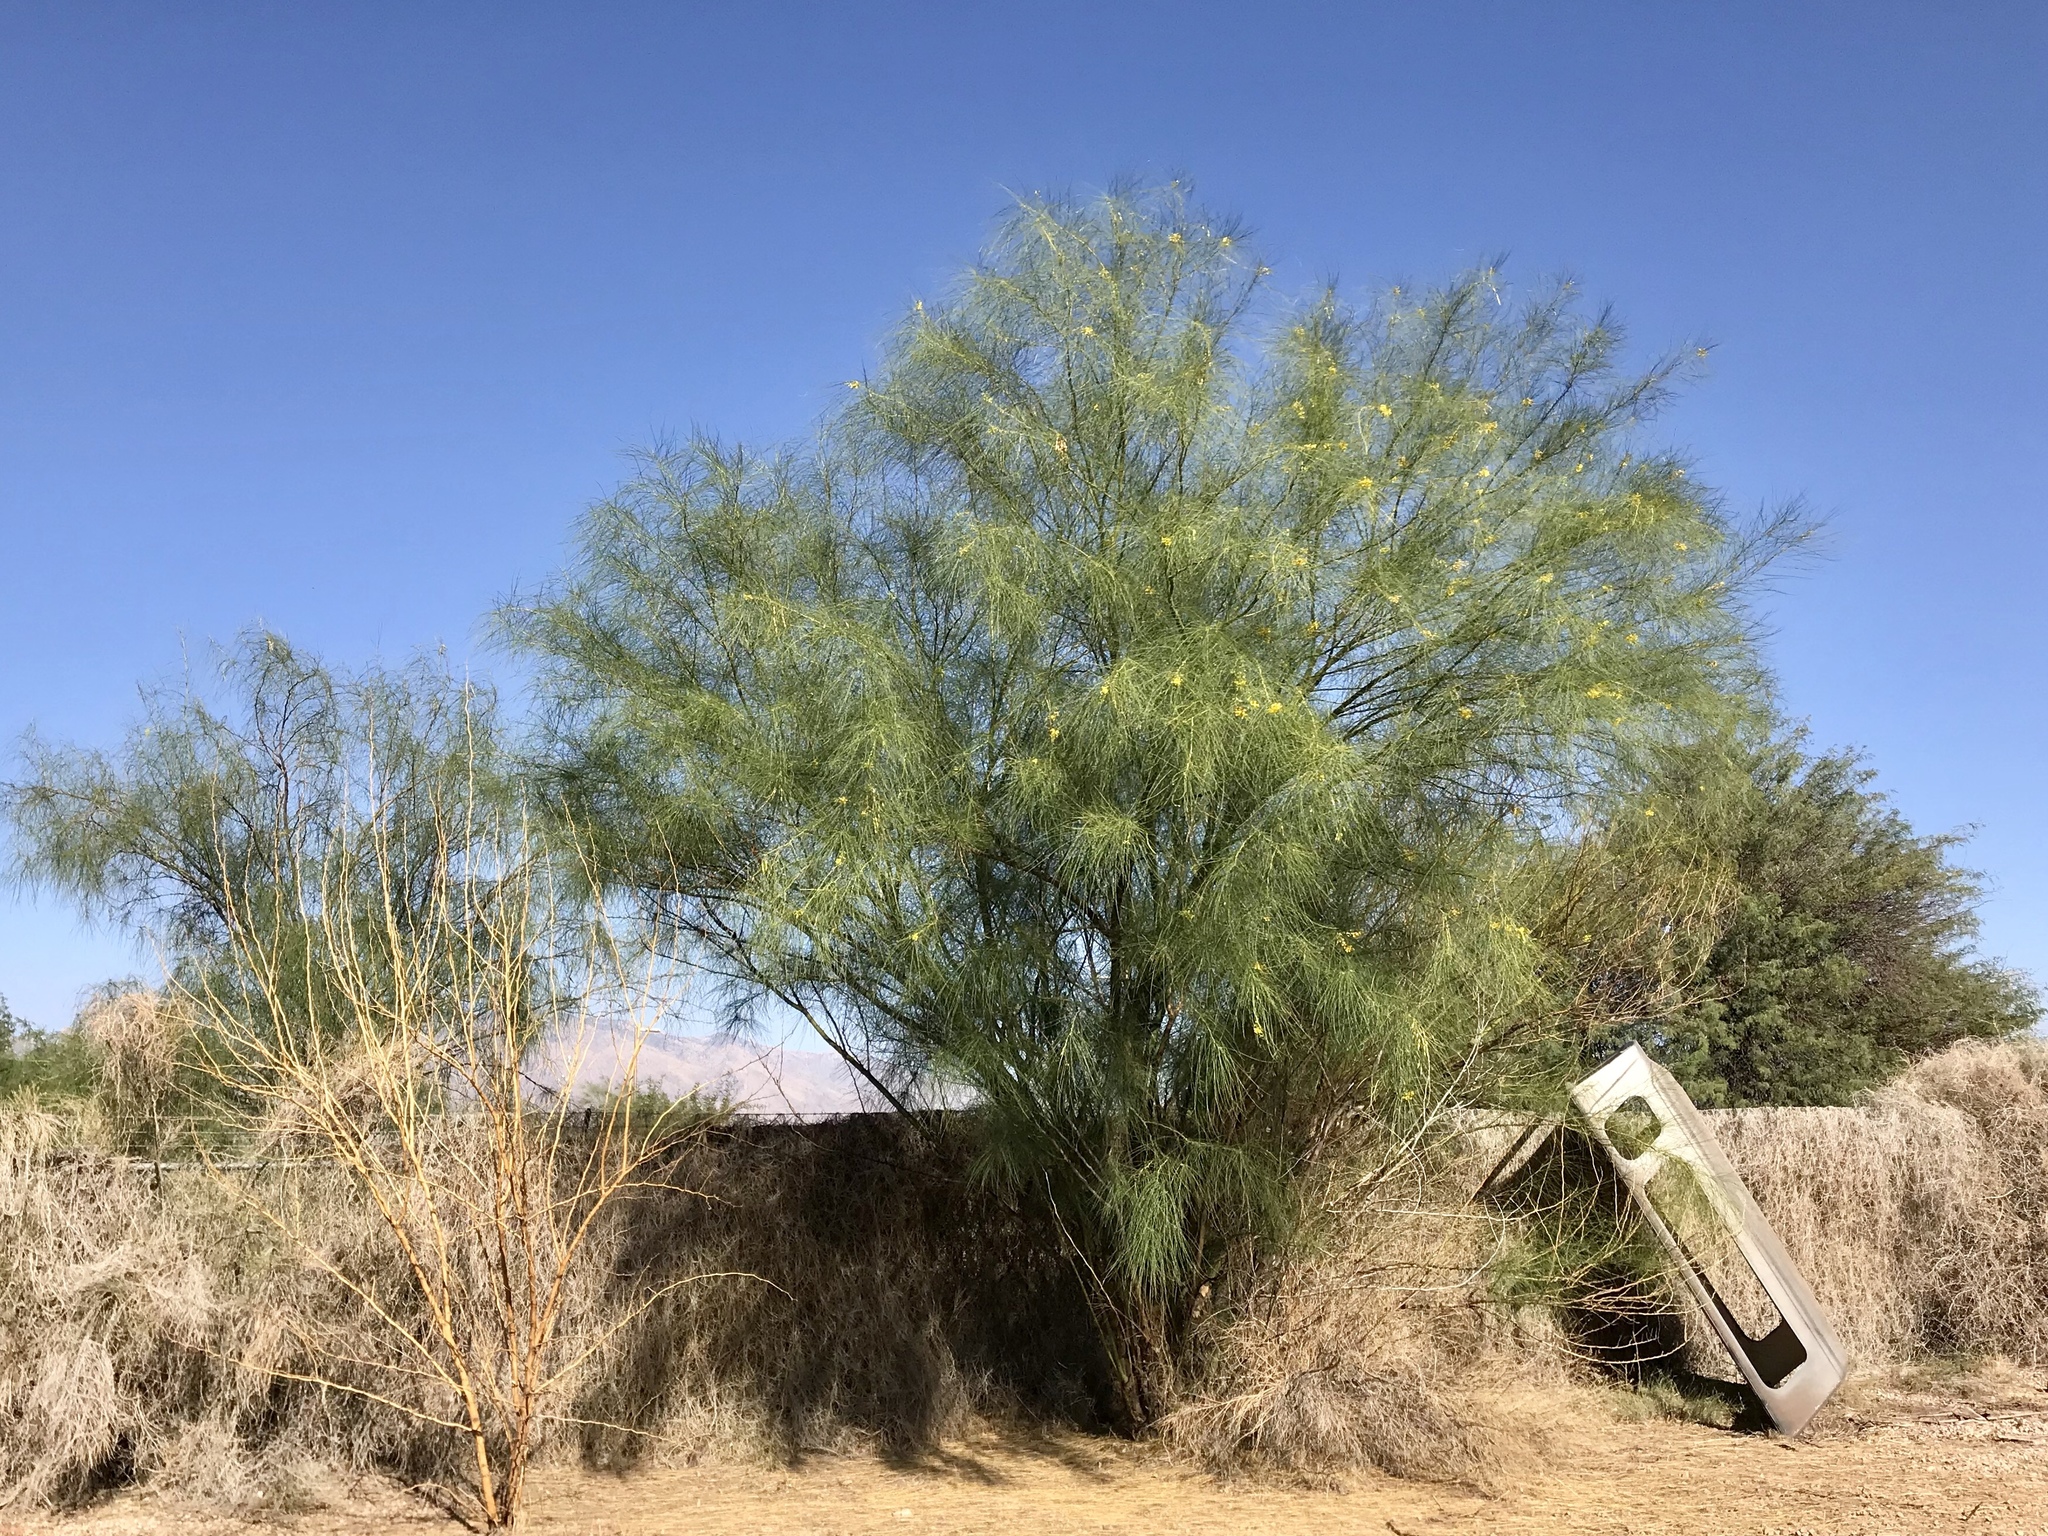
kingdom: Plantae
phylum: Tracheophyta
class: Magnoliopsida
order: Fabales
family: Fabaceae
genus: Parkinsonia
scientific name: Parkinsonia aculeata
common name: Jerusalem thorn
